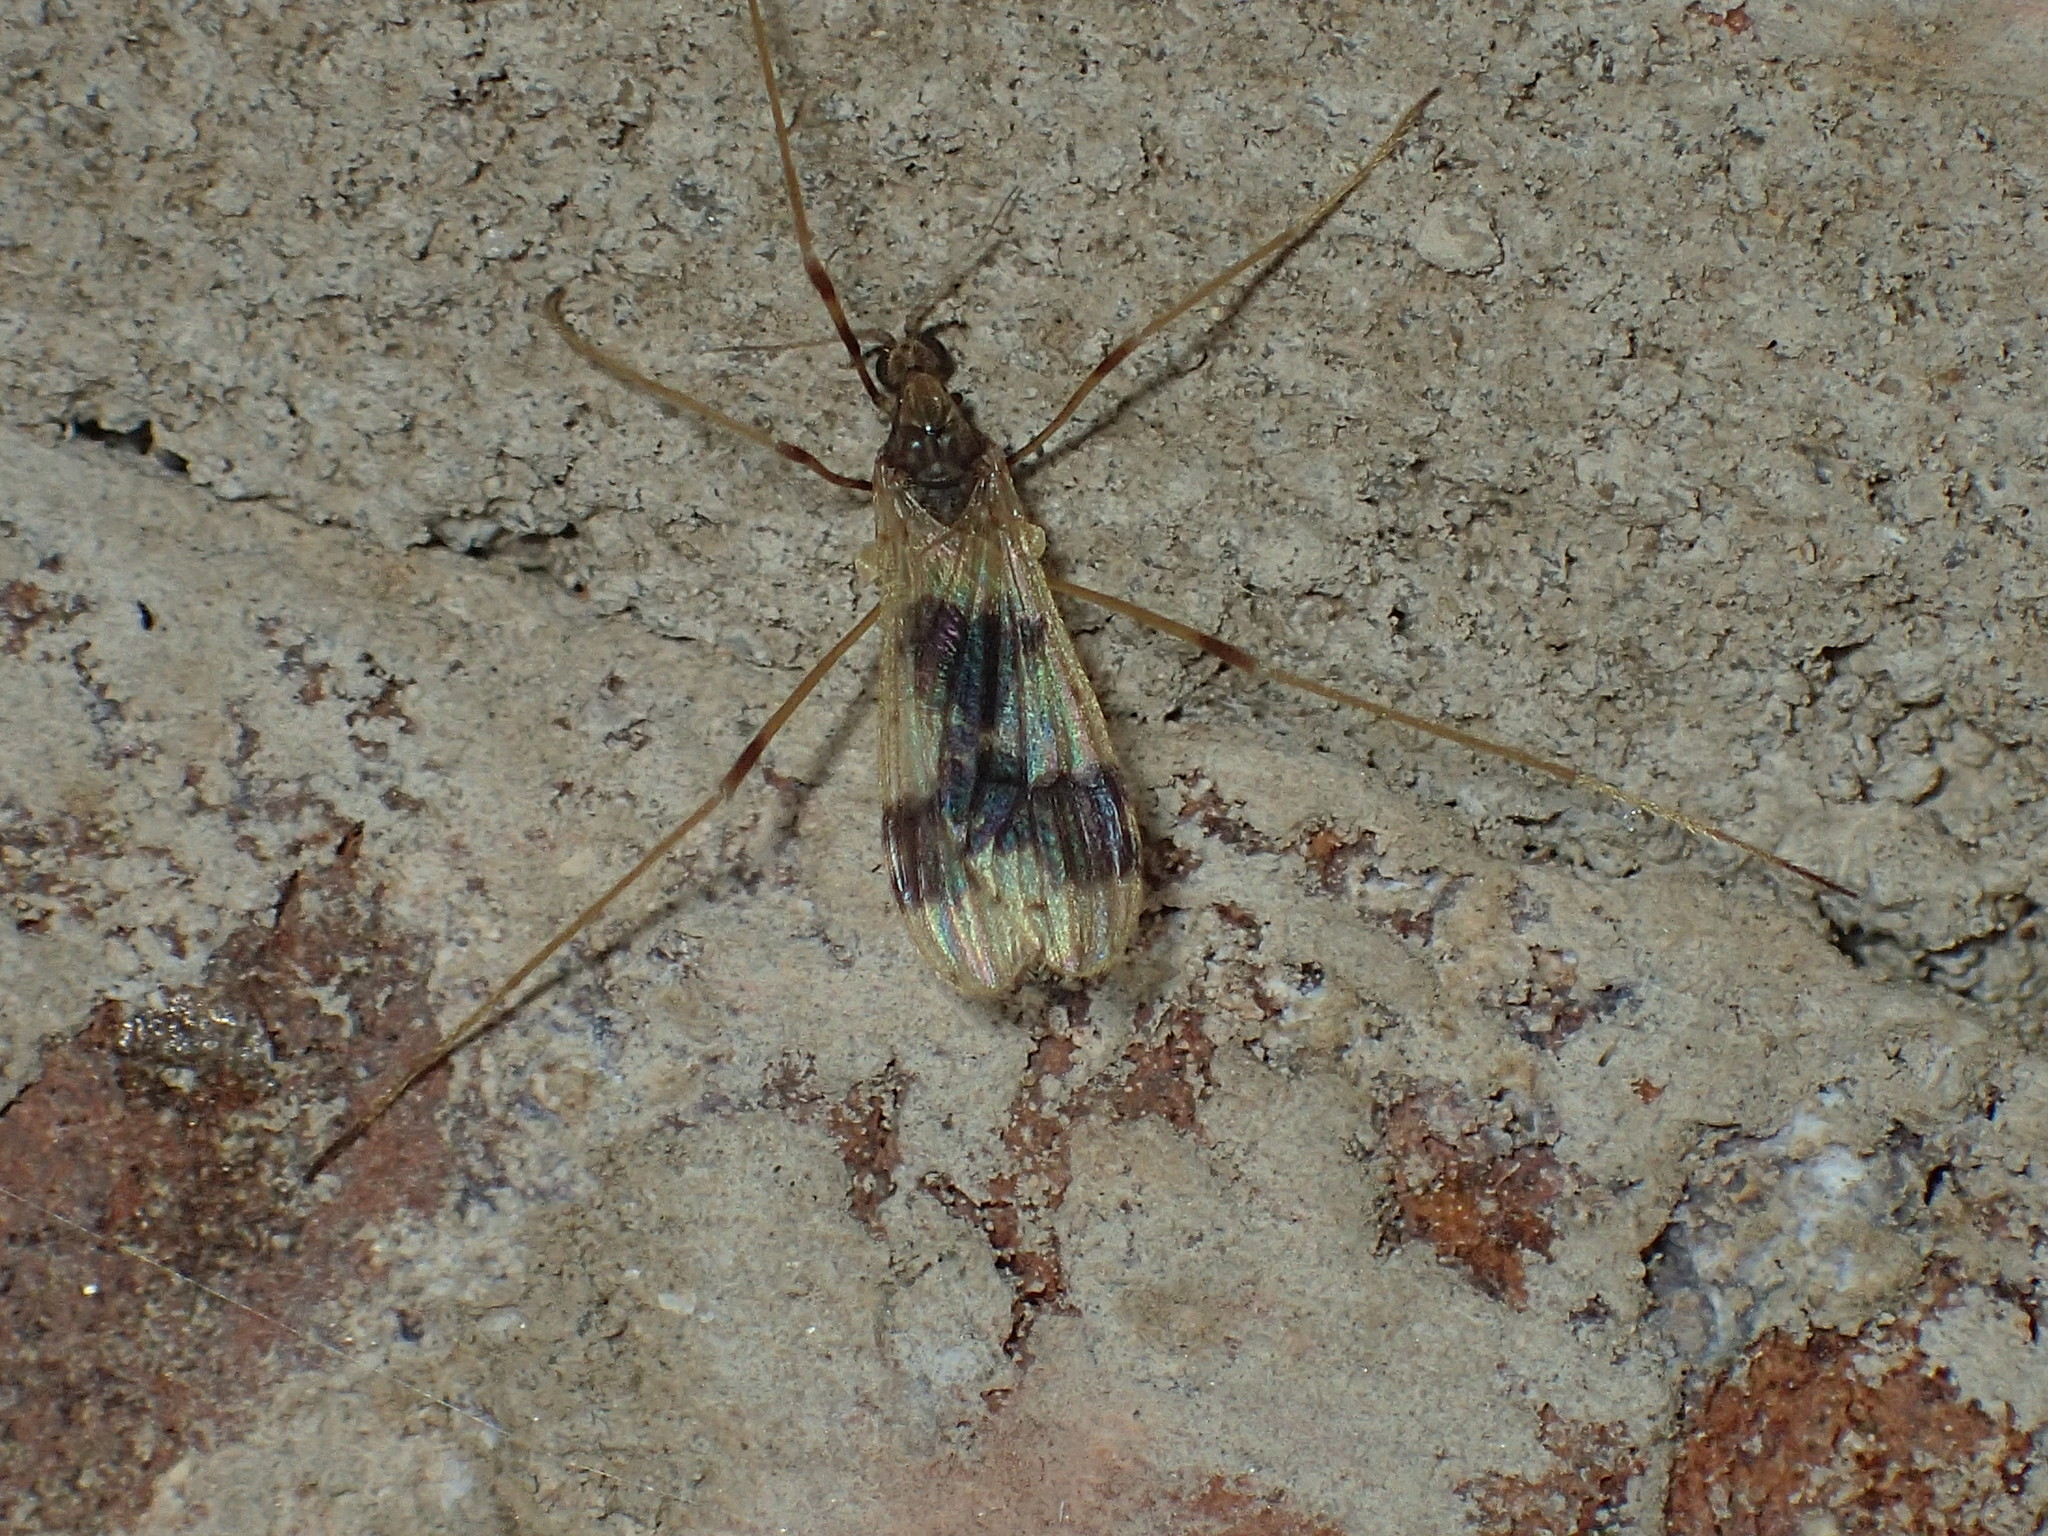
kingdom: Animalia
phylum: Arthropoda
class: Insecta
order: Diptera
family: Limoniidae
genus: Ilisia
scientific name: Ilisia venusta
